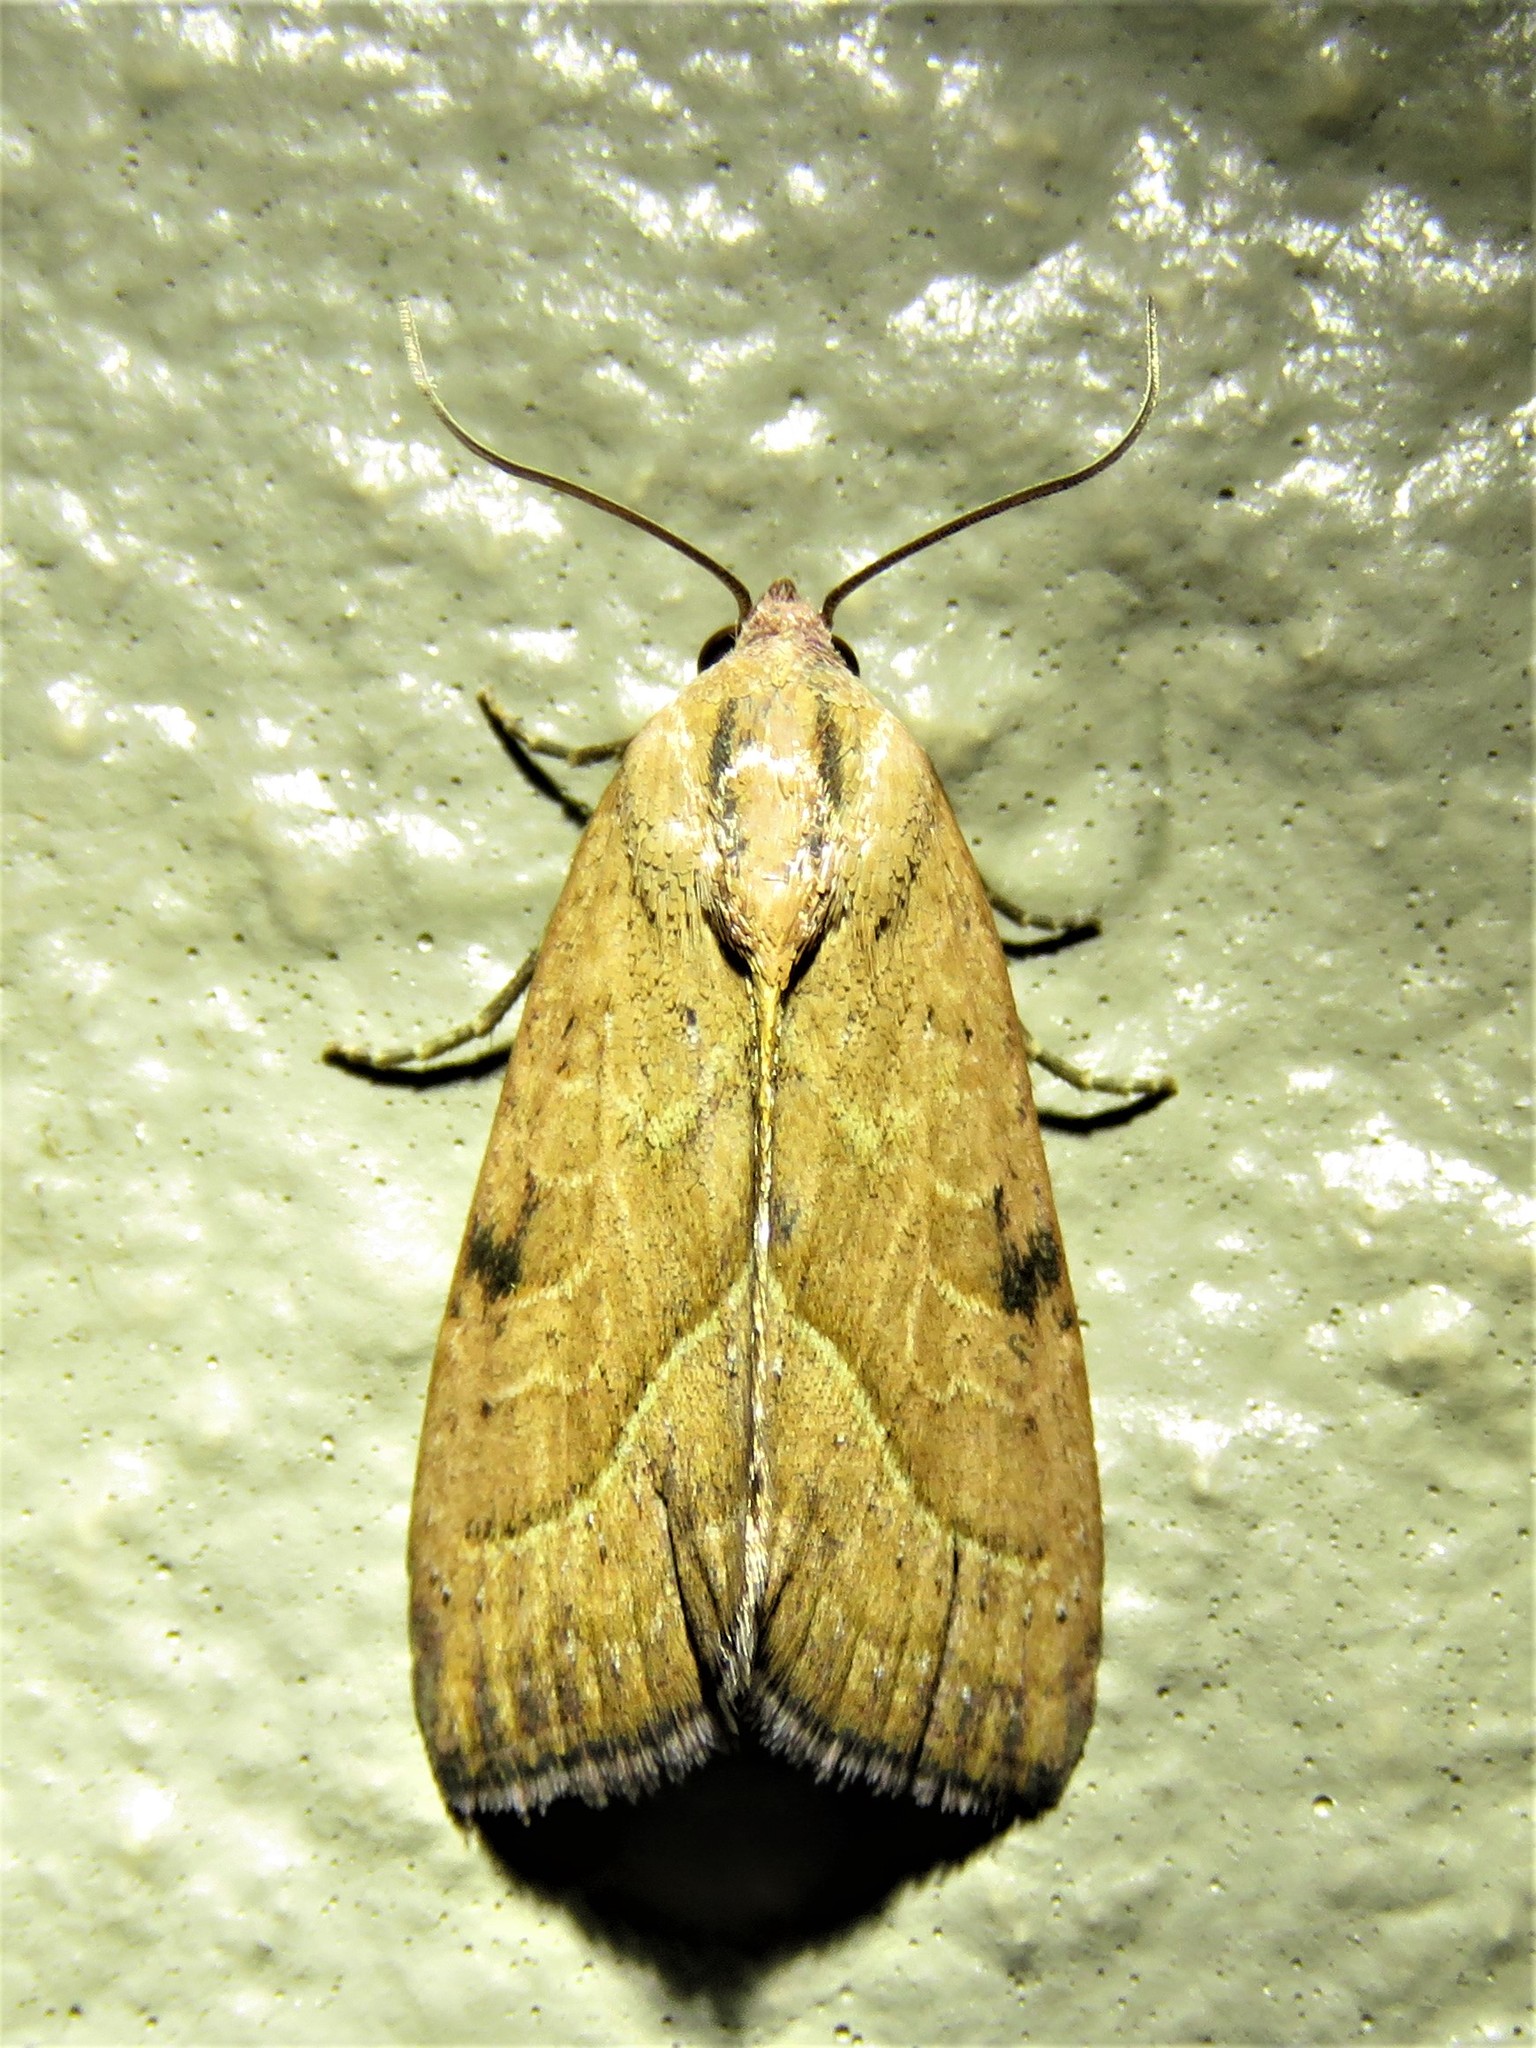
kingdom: Animalia
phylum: Arthropoda
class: Insecta
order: Lepidoptera
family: Noctuidae
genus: Galgula
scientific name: Galgula partita
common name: Wedgeling
